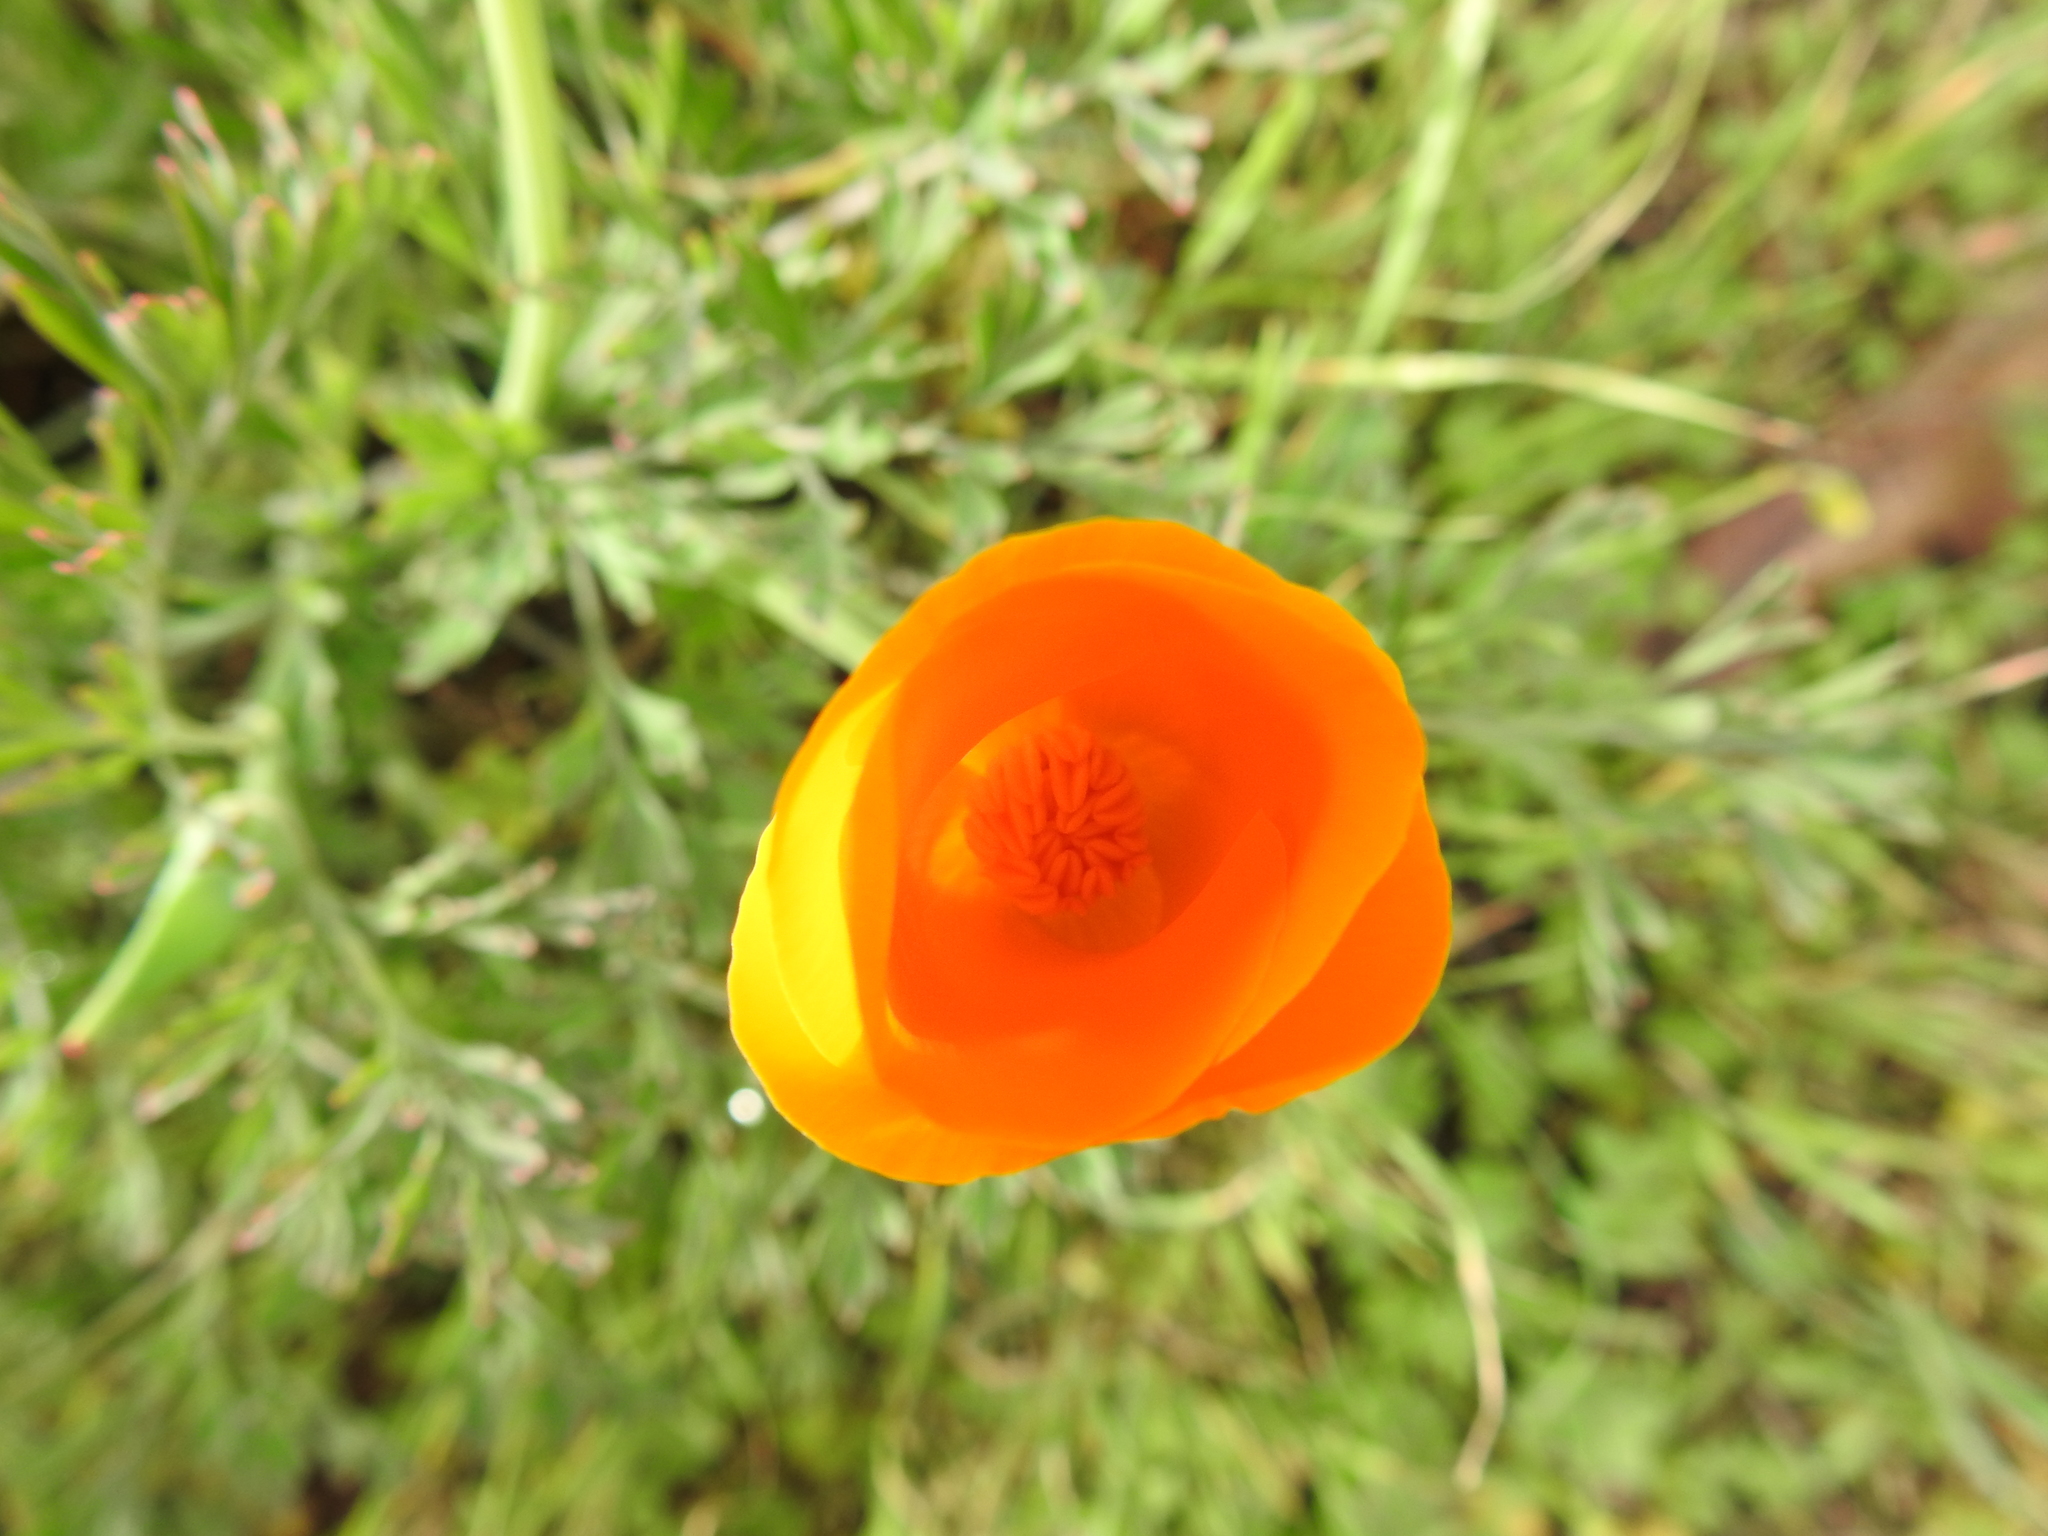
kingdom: Plantae
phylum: Tracheophyta
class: Magnoliopsida
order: Ranunculales
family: Papaveraceae
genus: Eschscholzia
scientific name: Eschscholzia californica
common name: California poppy
